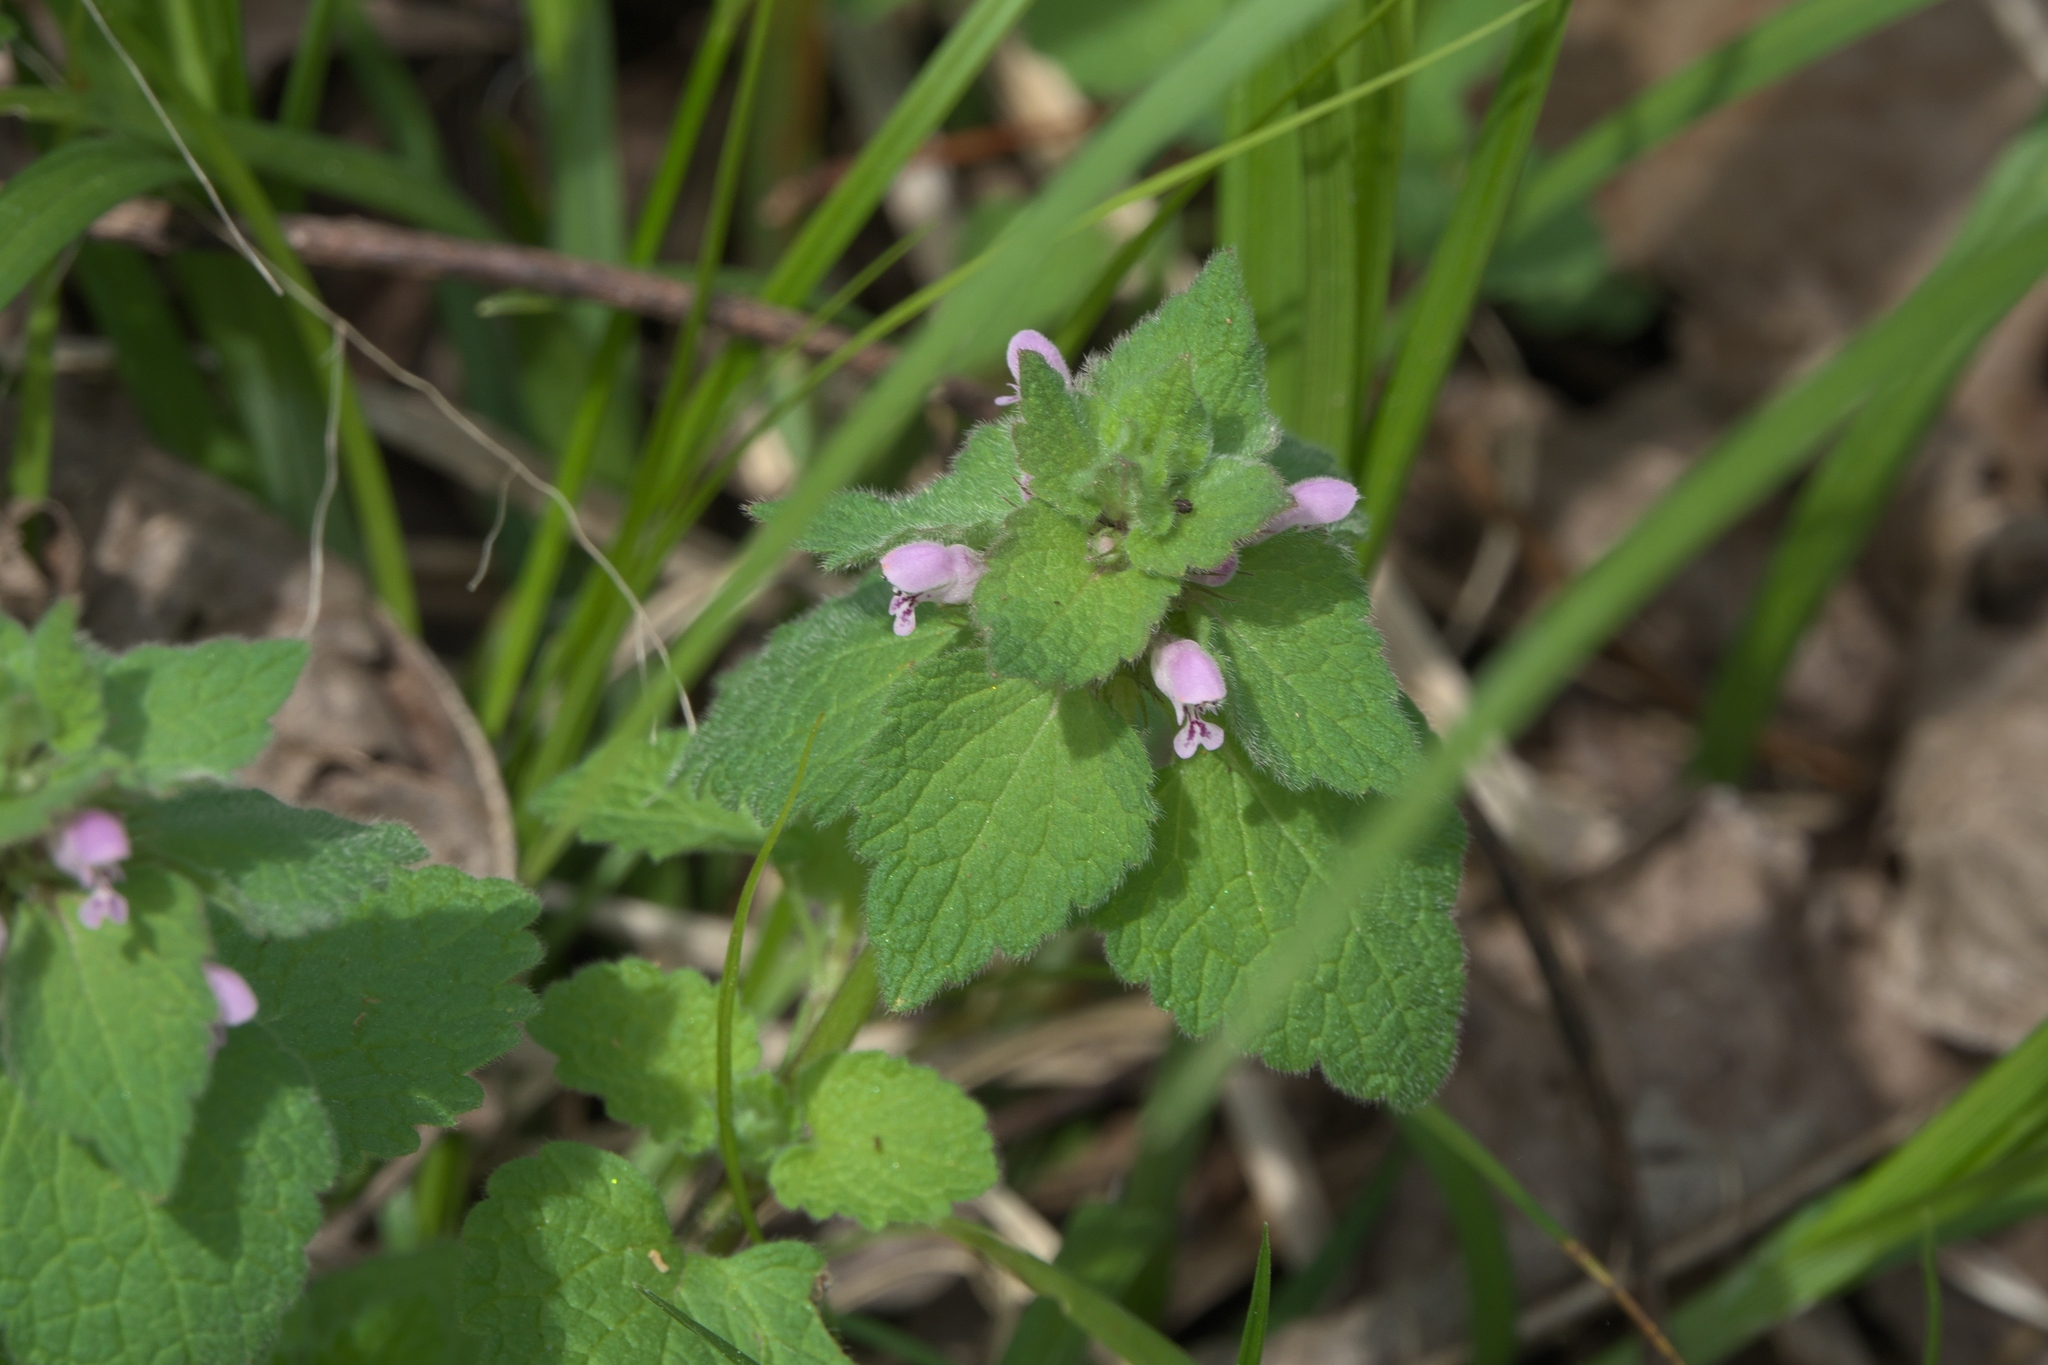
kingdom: Plantae
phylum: Tracheophyta
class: Magnoliopsida
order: Lamiales
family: Lamiaceae
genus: Lamium
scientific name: Lamium purpureum
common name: Red dead-nettle
